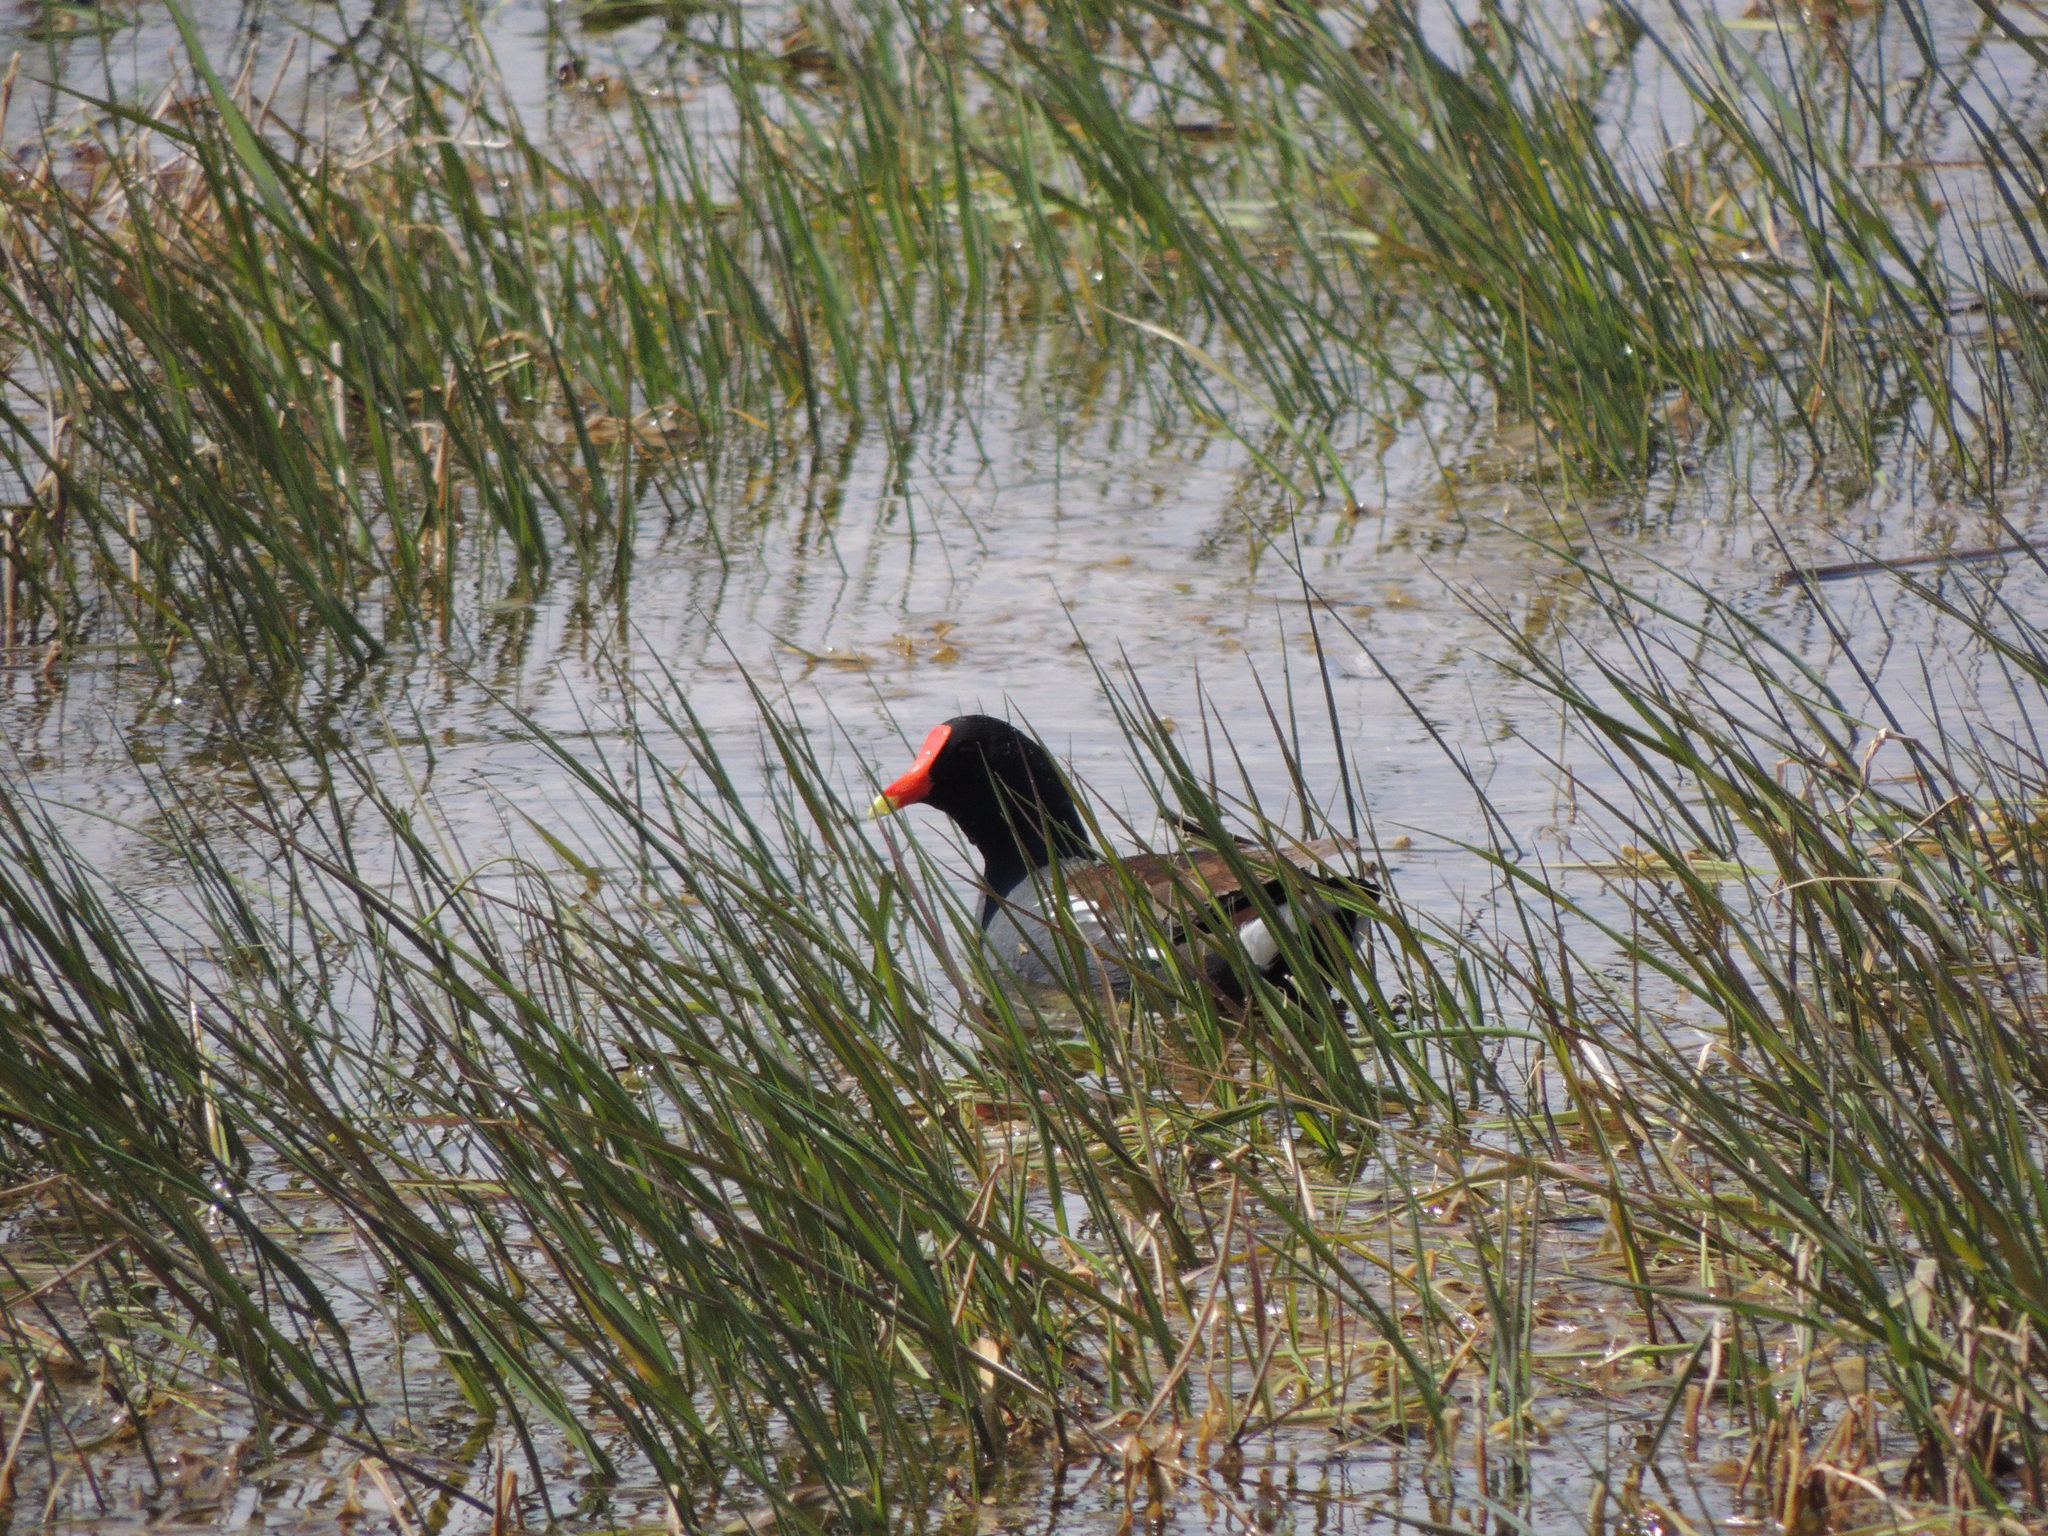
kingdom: Animalia
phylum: Chordata
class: Aves
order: Gruiformes
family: Rallidae
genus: Gallinula
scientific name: Gallinula chloropus
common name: Common moorhen
